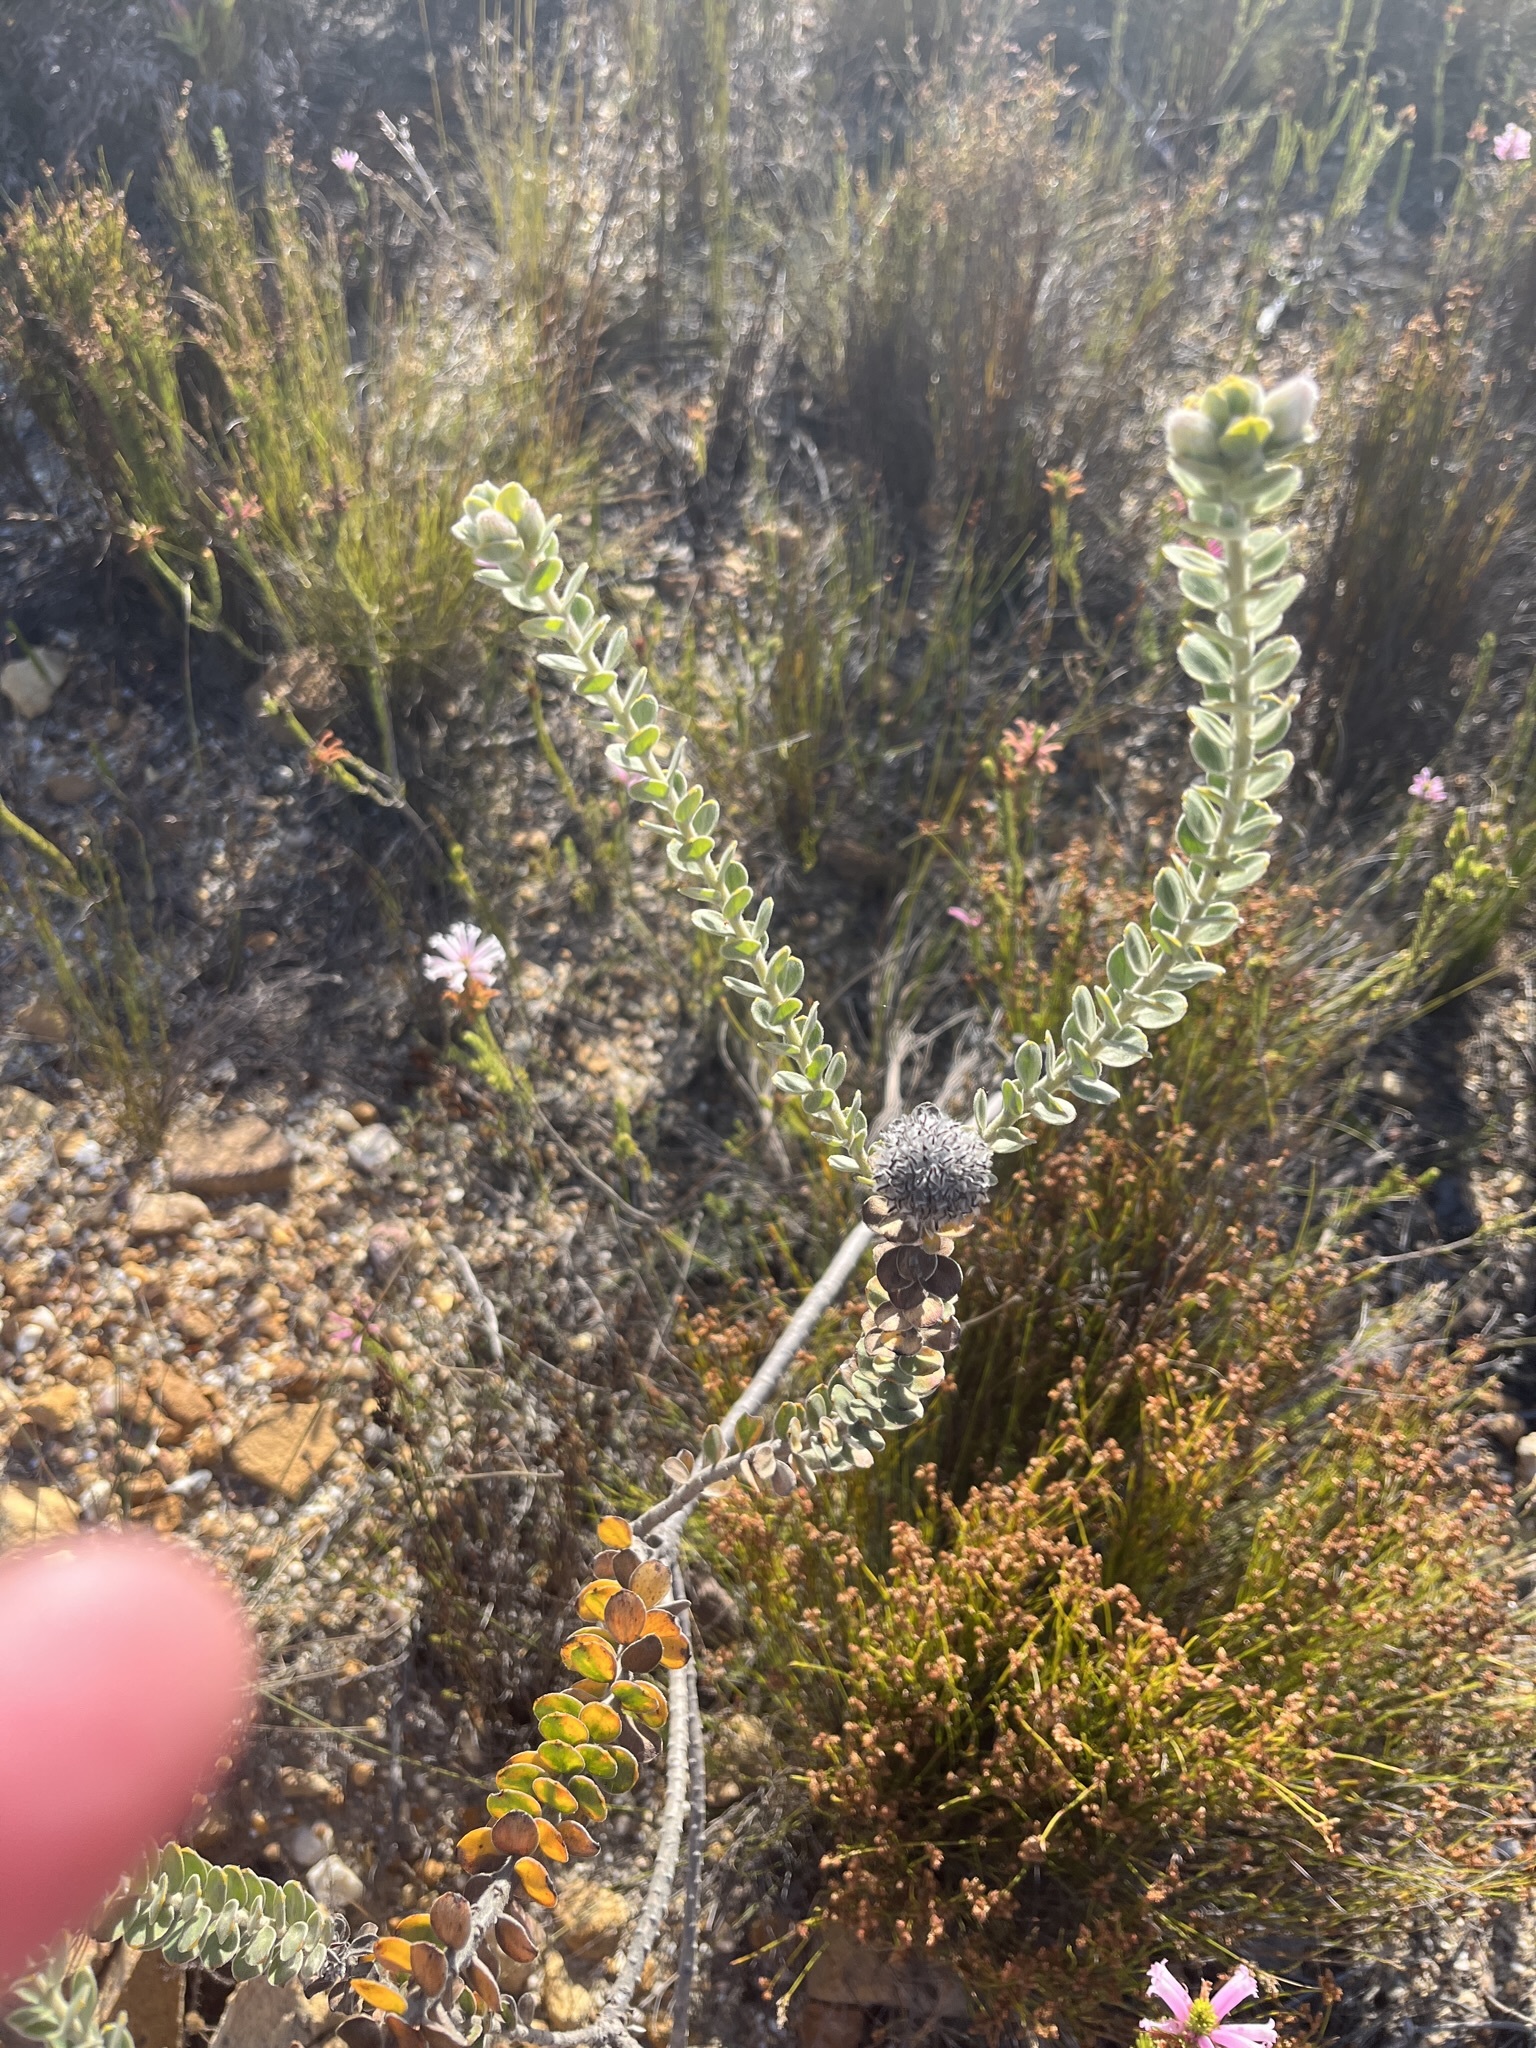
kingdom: Plantae
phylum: Tracheophyta
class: Magnoliopsida
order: Proteales
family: Proteaceae
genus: Leucospermum
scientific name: Leucospermum truncatulum
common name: Oval-leaf pincushion
